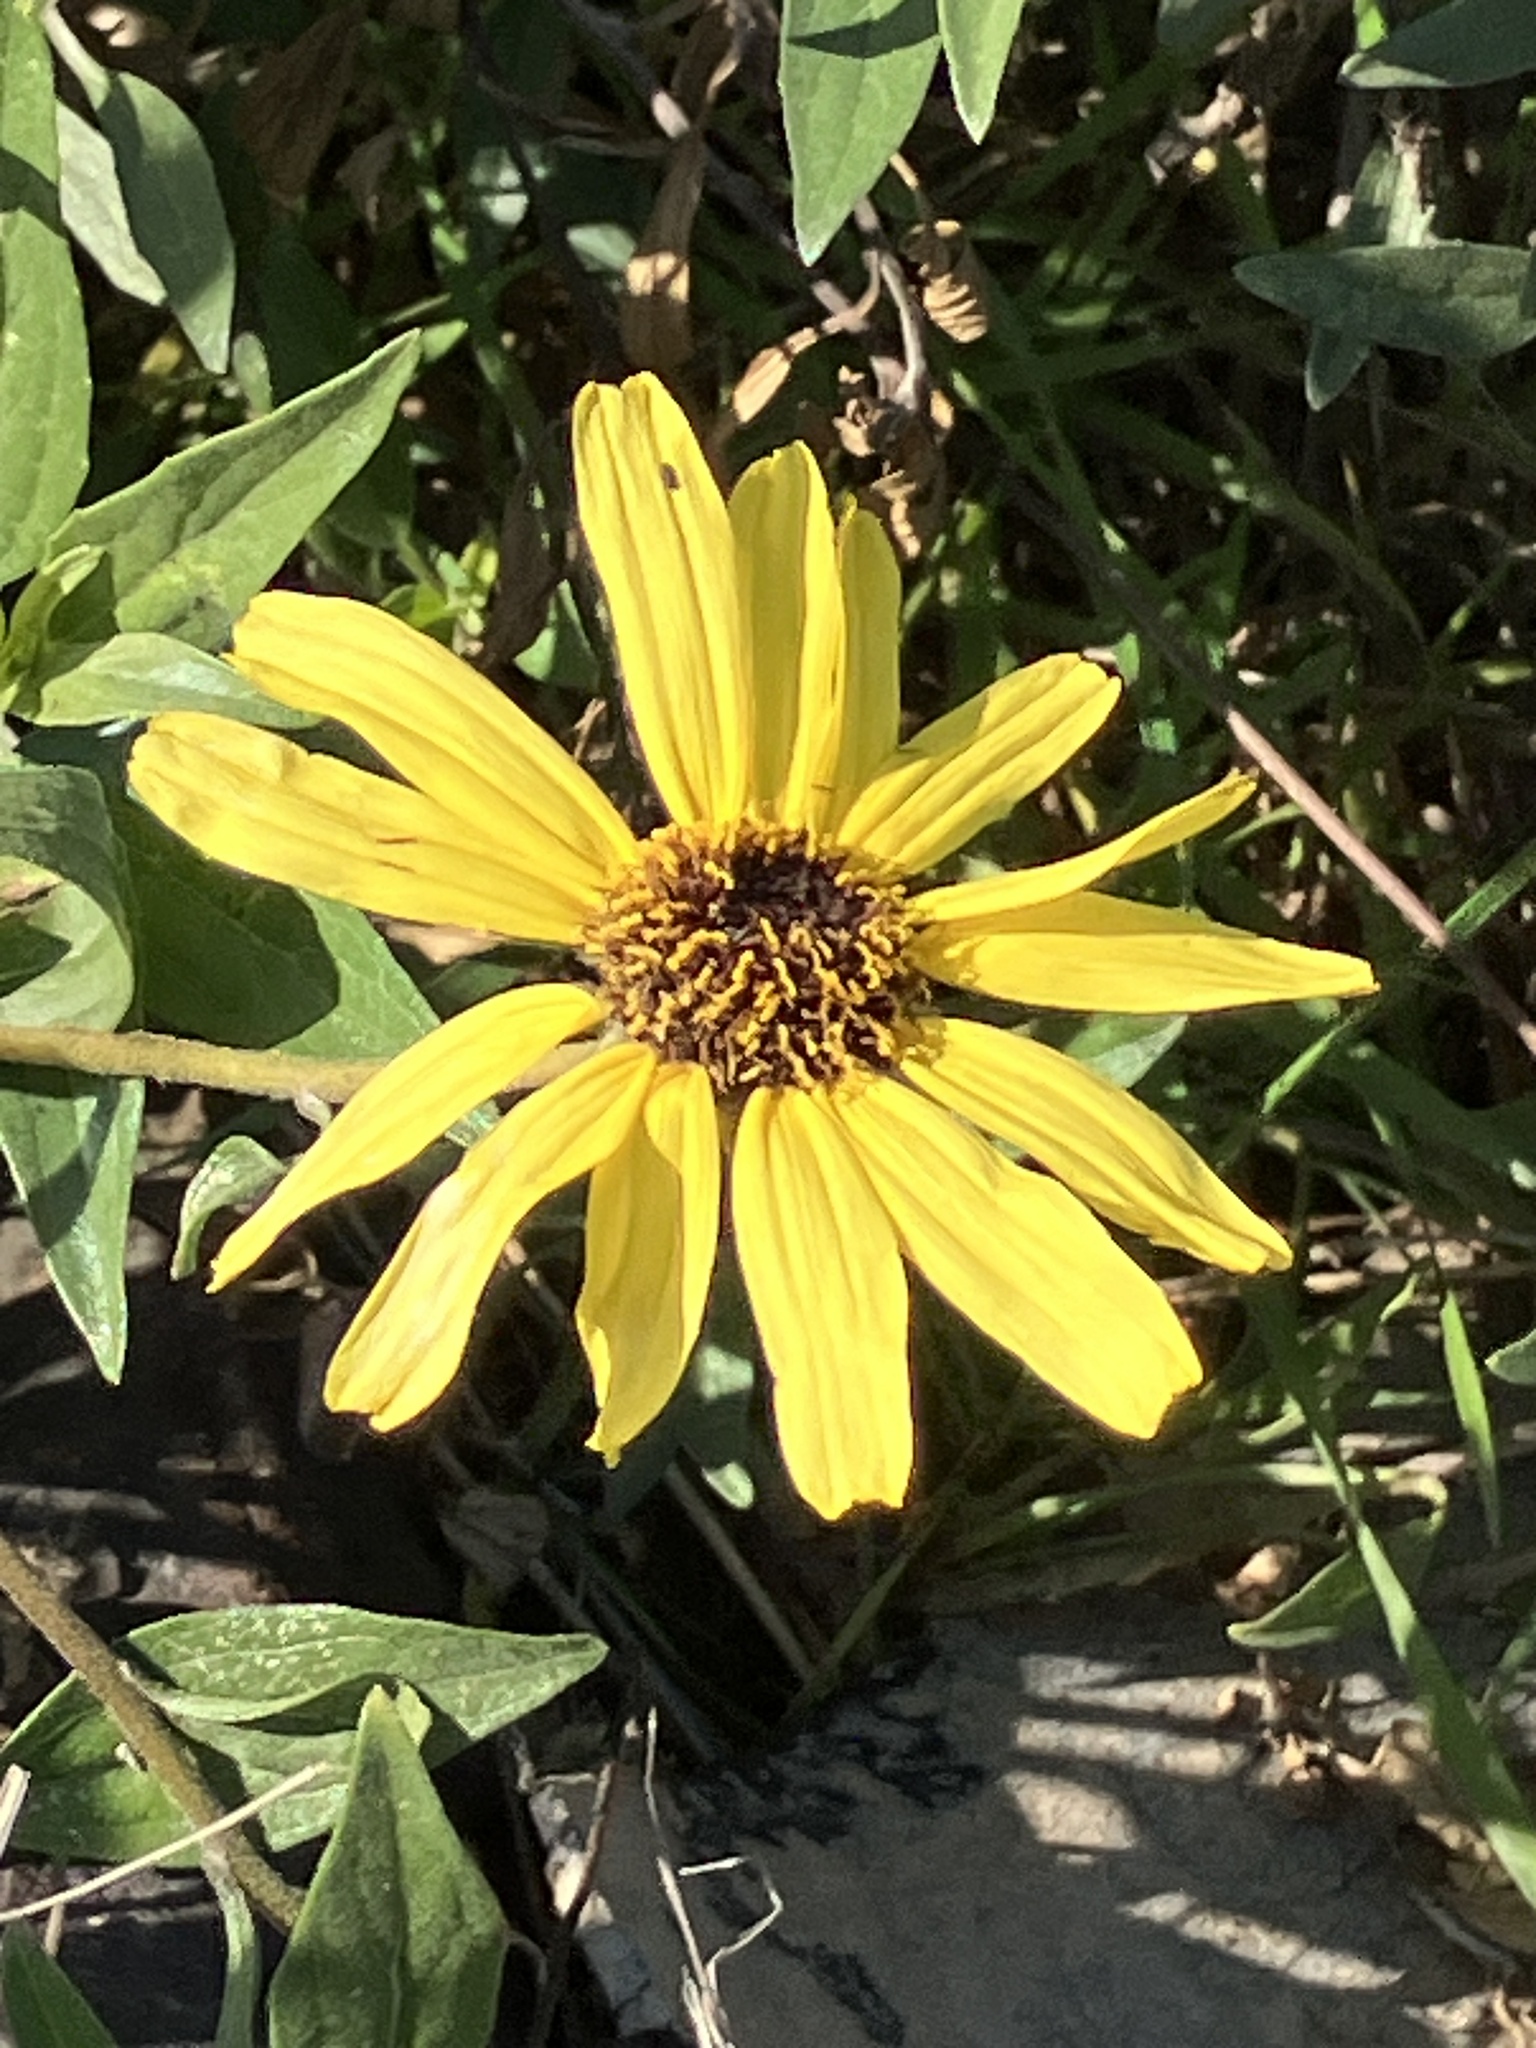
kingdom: Plantae
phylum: Tracheophyta
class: Magnoliopsida
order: Asterales
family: Asteraceae
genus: Encelia
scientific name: Encelia californica
